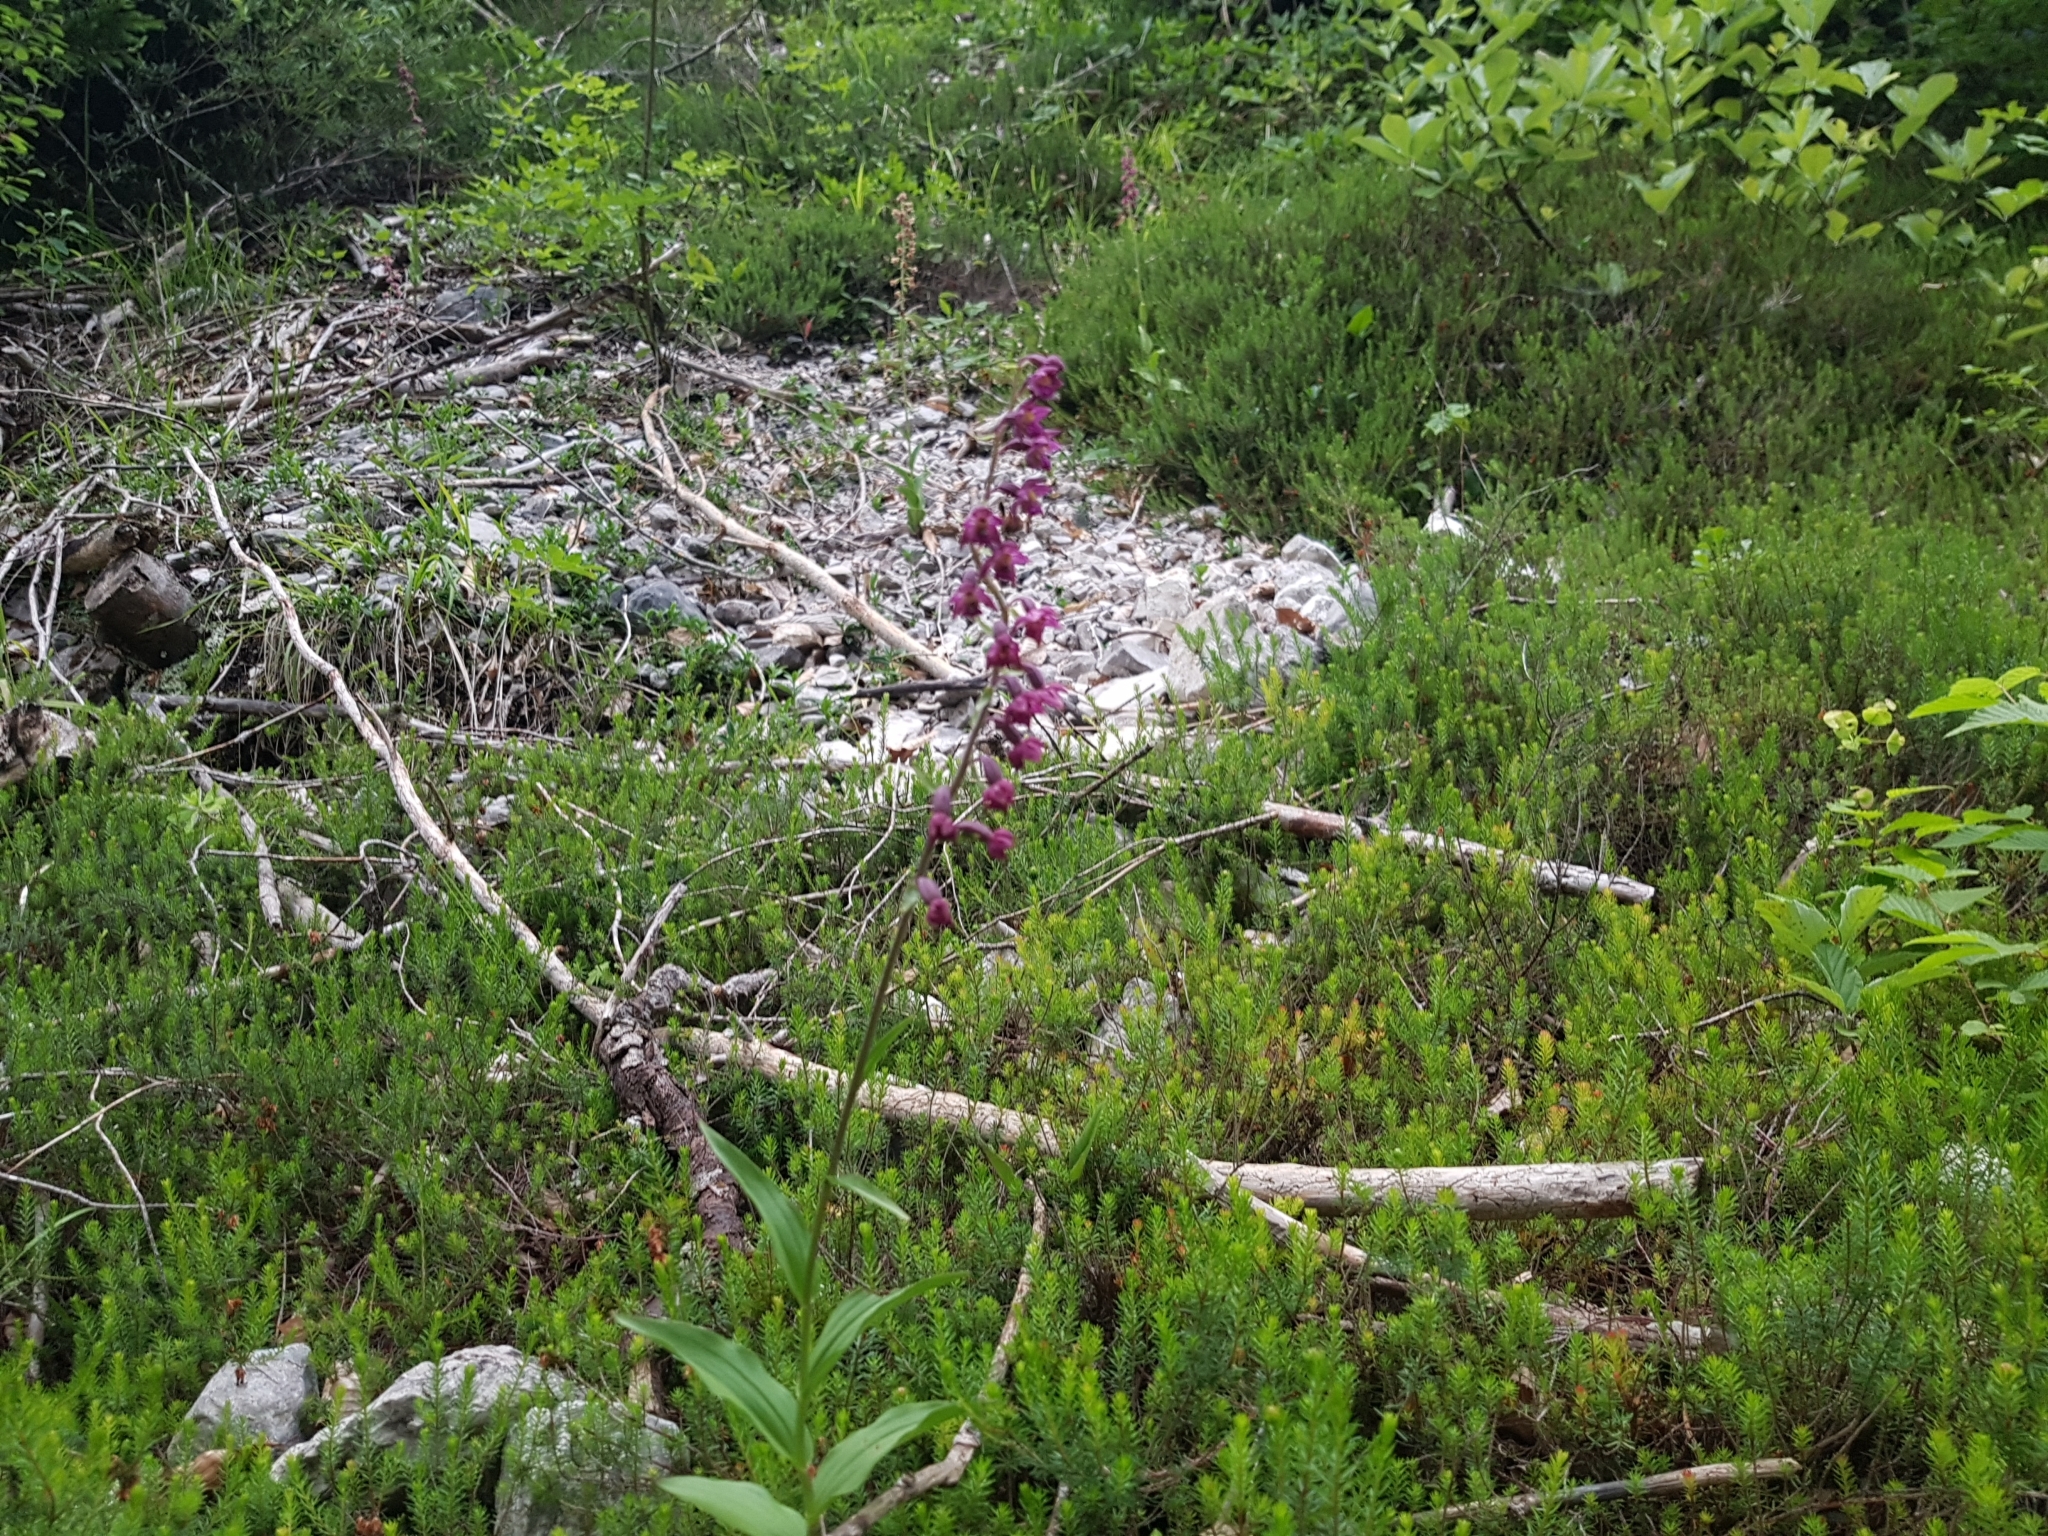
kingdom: Plantae
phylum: Tracheophyta
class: Liliopsida
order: Asparagales
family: Orchidaceae
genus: Epipactis
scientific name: Epipactis atrorubens
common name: Dark-red helleborine
